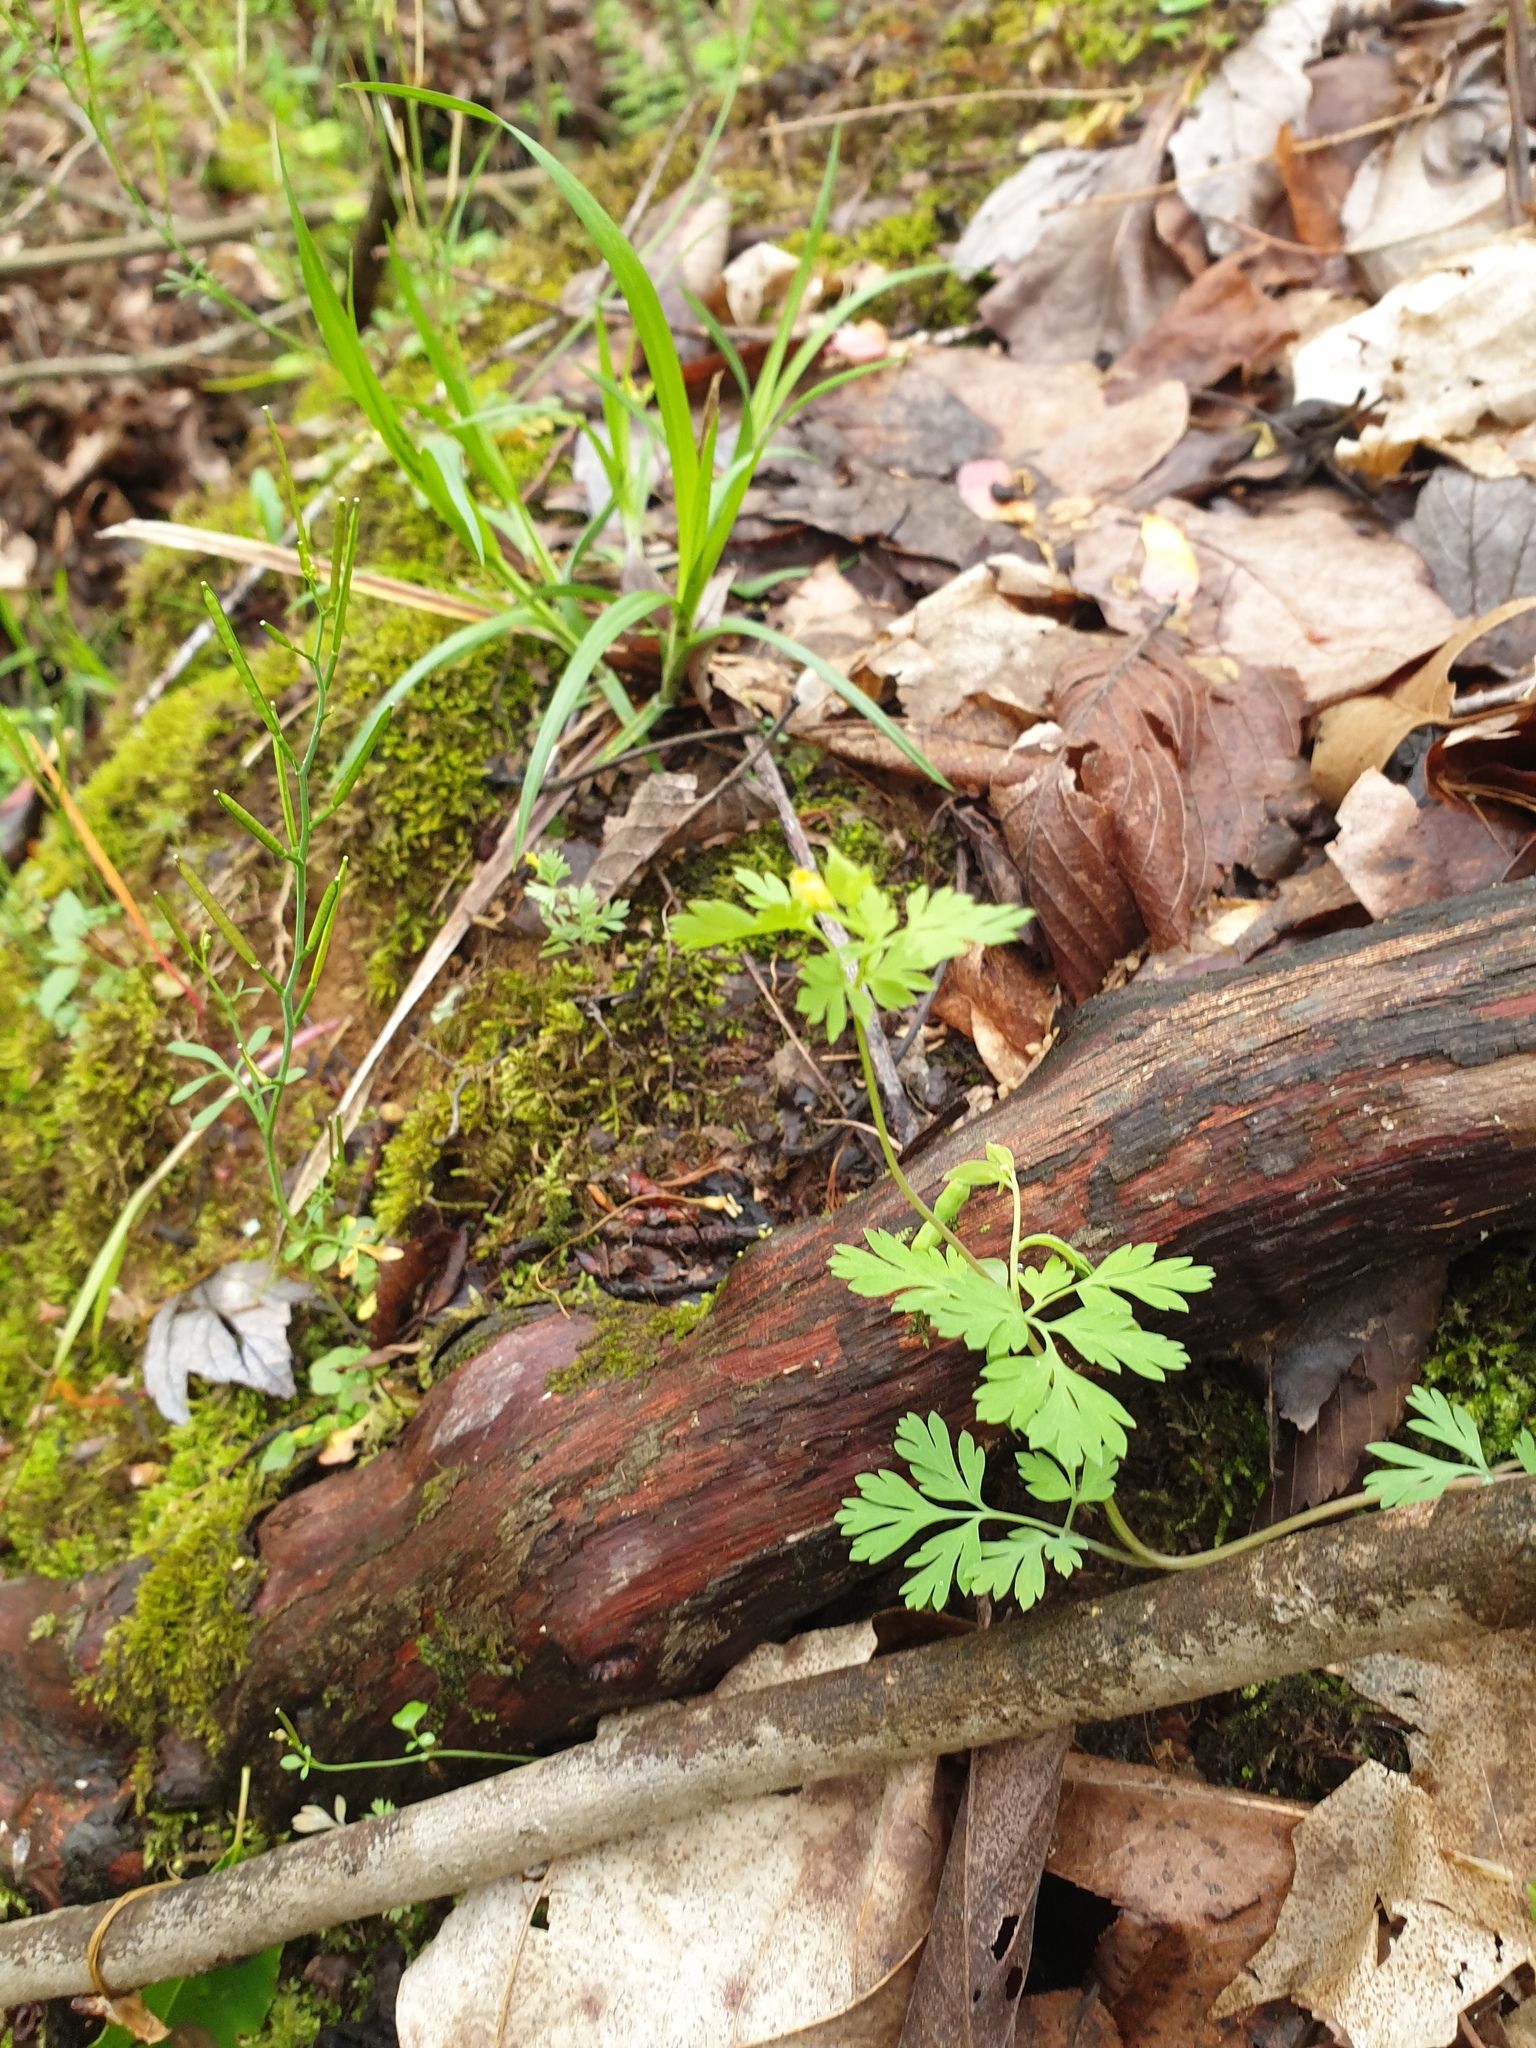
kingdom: Plantae
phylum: Tracheophyta
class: Magnoliopsida
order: Ranunculales
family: Papaveraceae
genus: Corydalis
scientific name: Corydalis flavula
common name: Yellow corydalis
